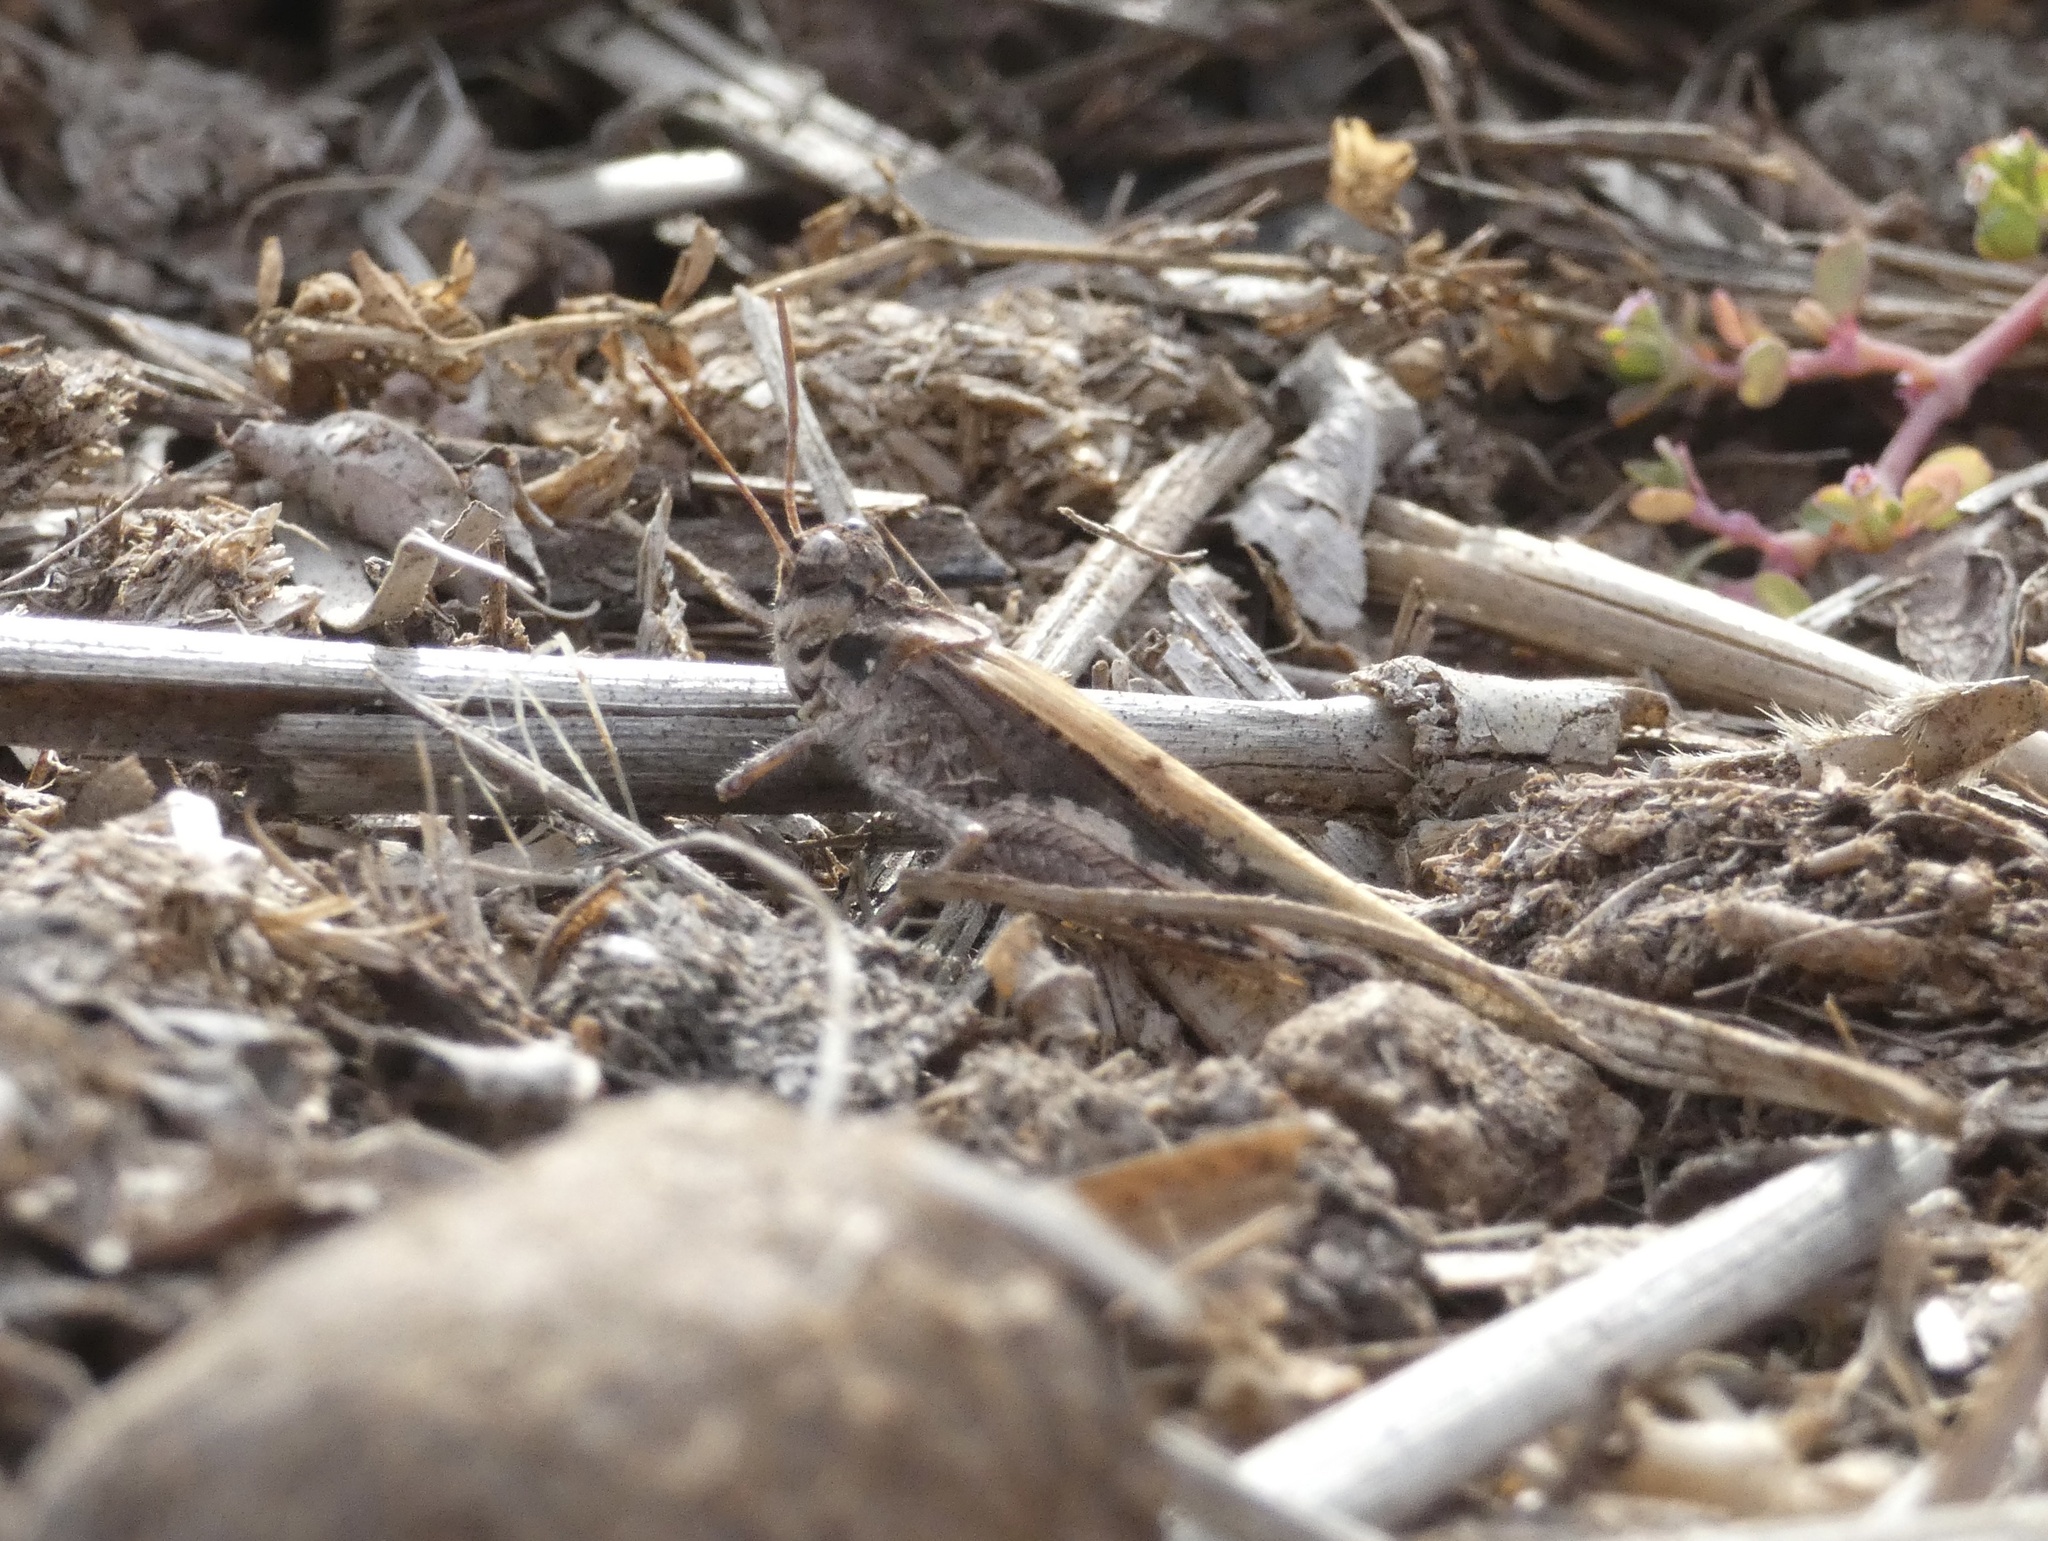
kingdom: Animalia
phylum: Arthropoda
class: Insecta
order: Orthoptera
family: Acrididae
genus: Acrotylus
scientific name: Acrotylus insubricus
